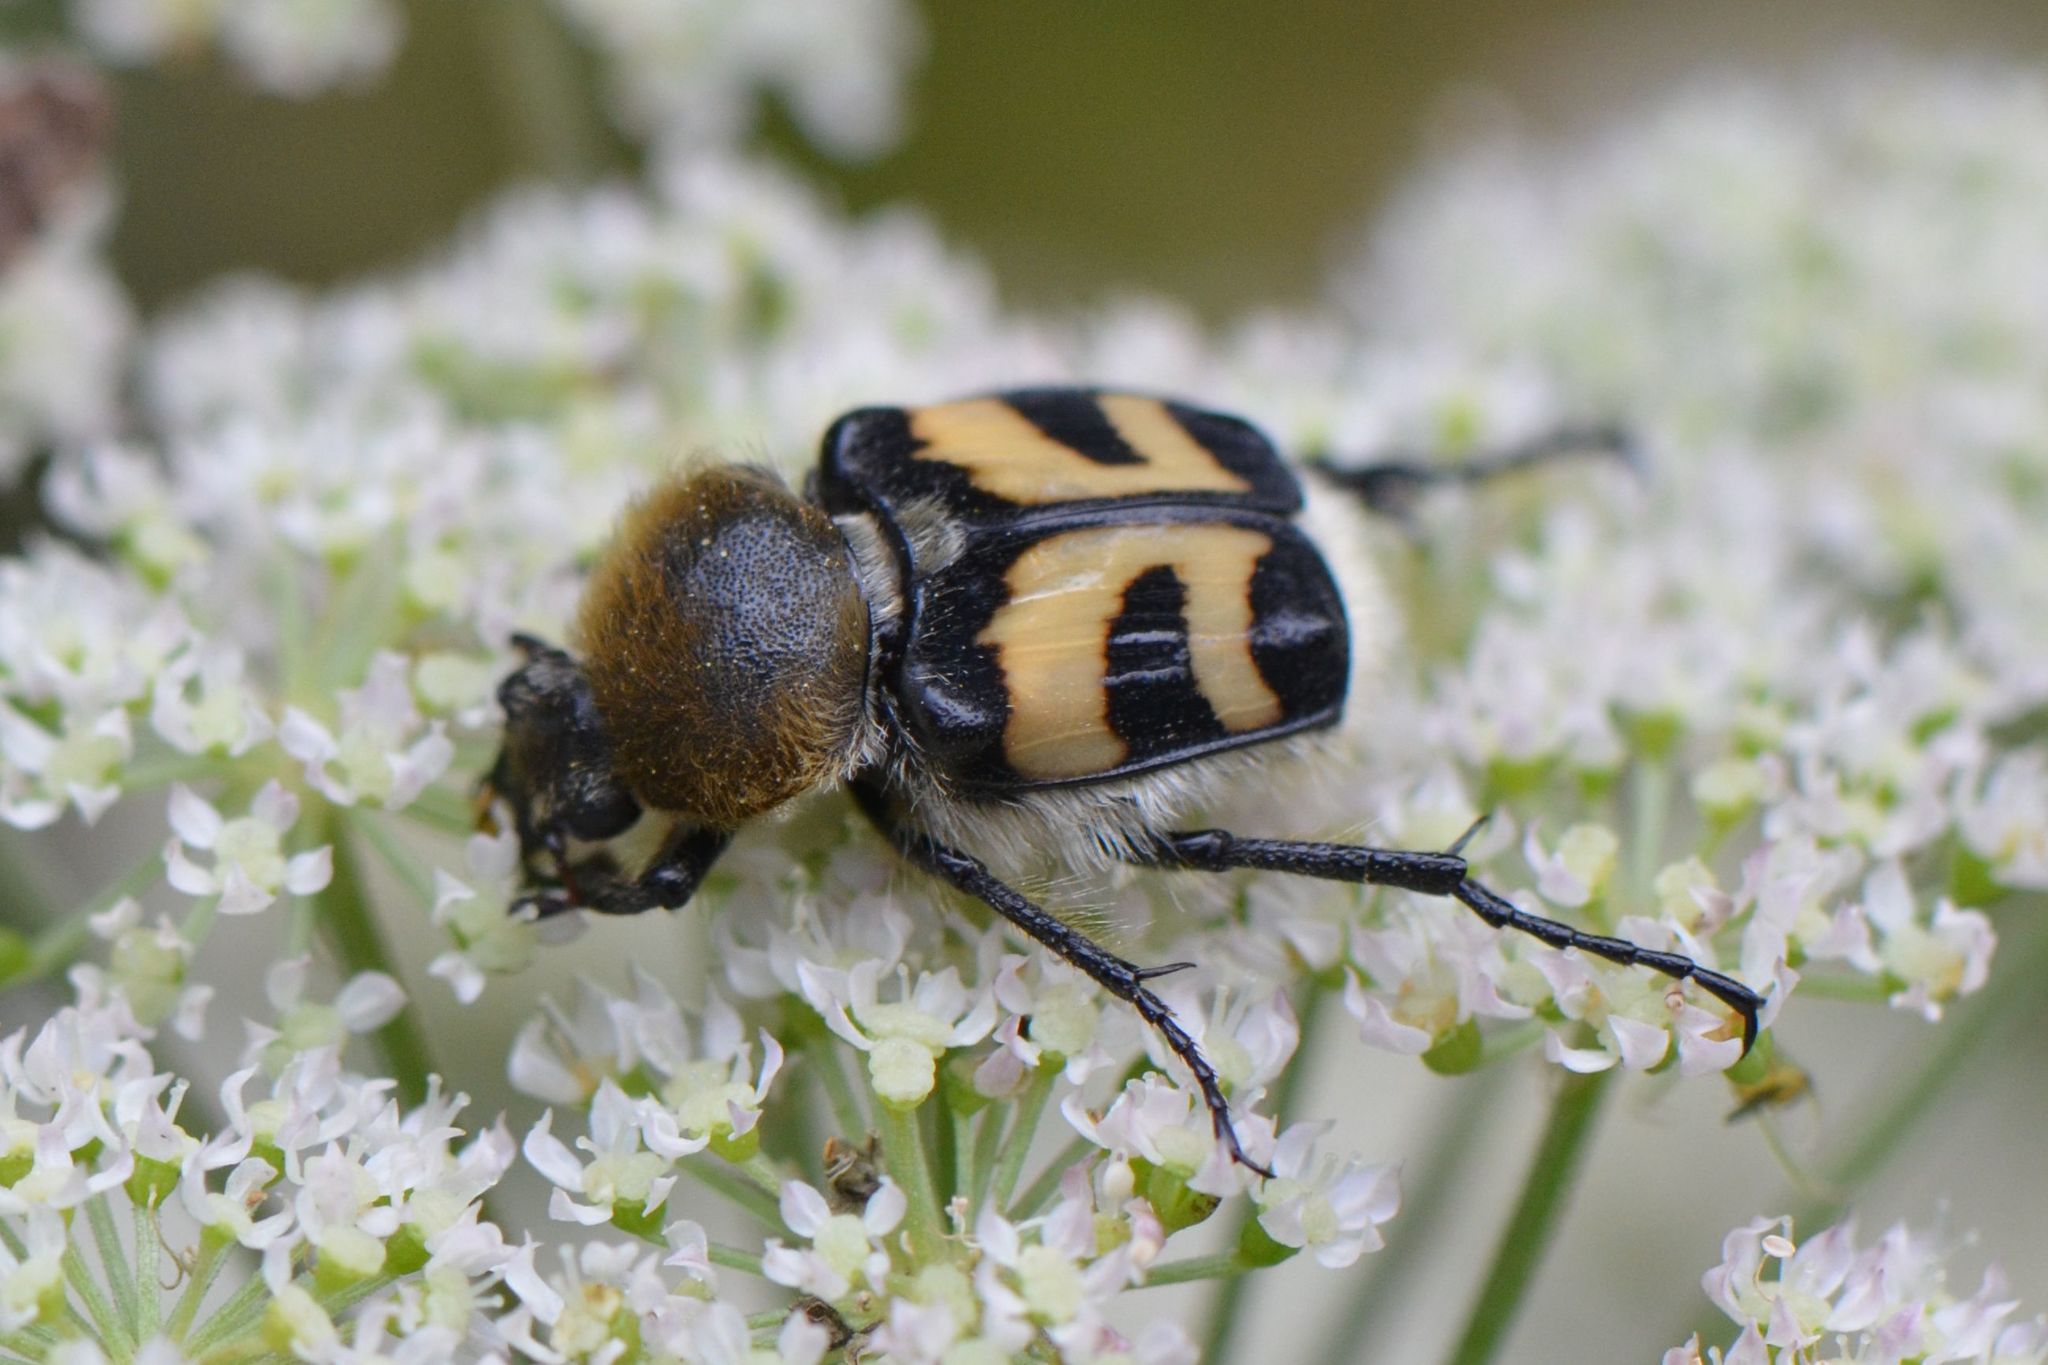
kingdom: Animalia
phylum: Arthropoda
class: Insecta
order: Coleoptera
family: Scarabaeidae
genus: Trichius
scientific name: Trichius fasciatus
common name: Bee beetle
